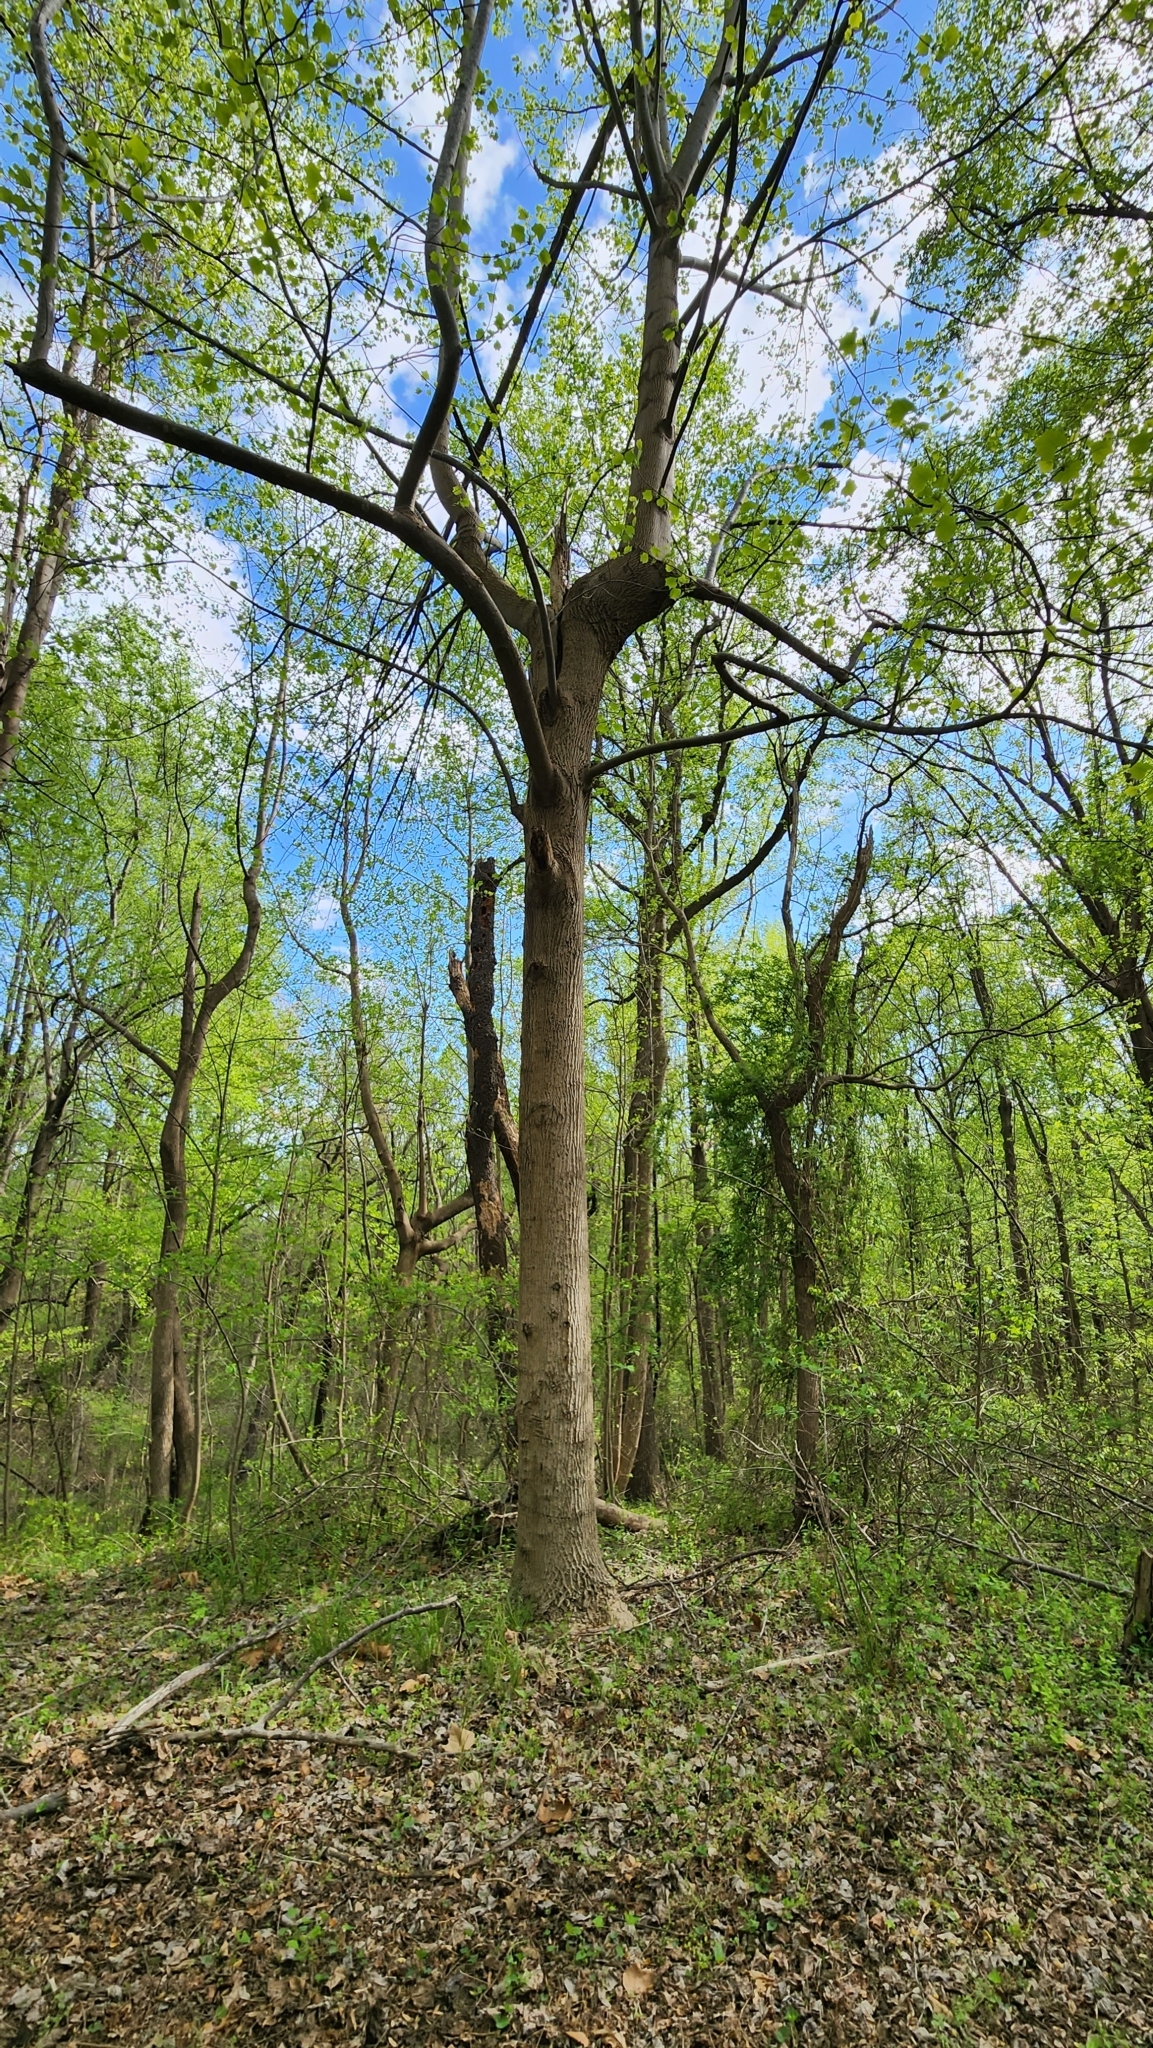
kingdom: Plantae
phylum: Tracheophyta
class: Magnoliopsida
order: Magnoliales
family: Magnoliaceae
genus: Liriodendron
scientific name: Liriodendron tulipifera
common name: Tulip tree
